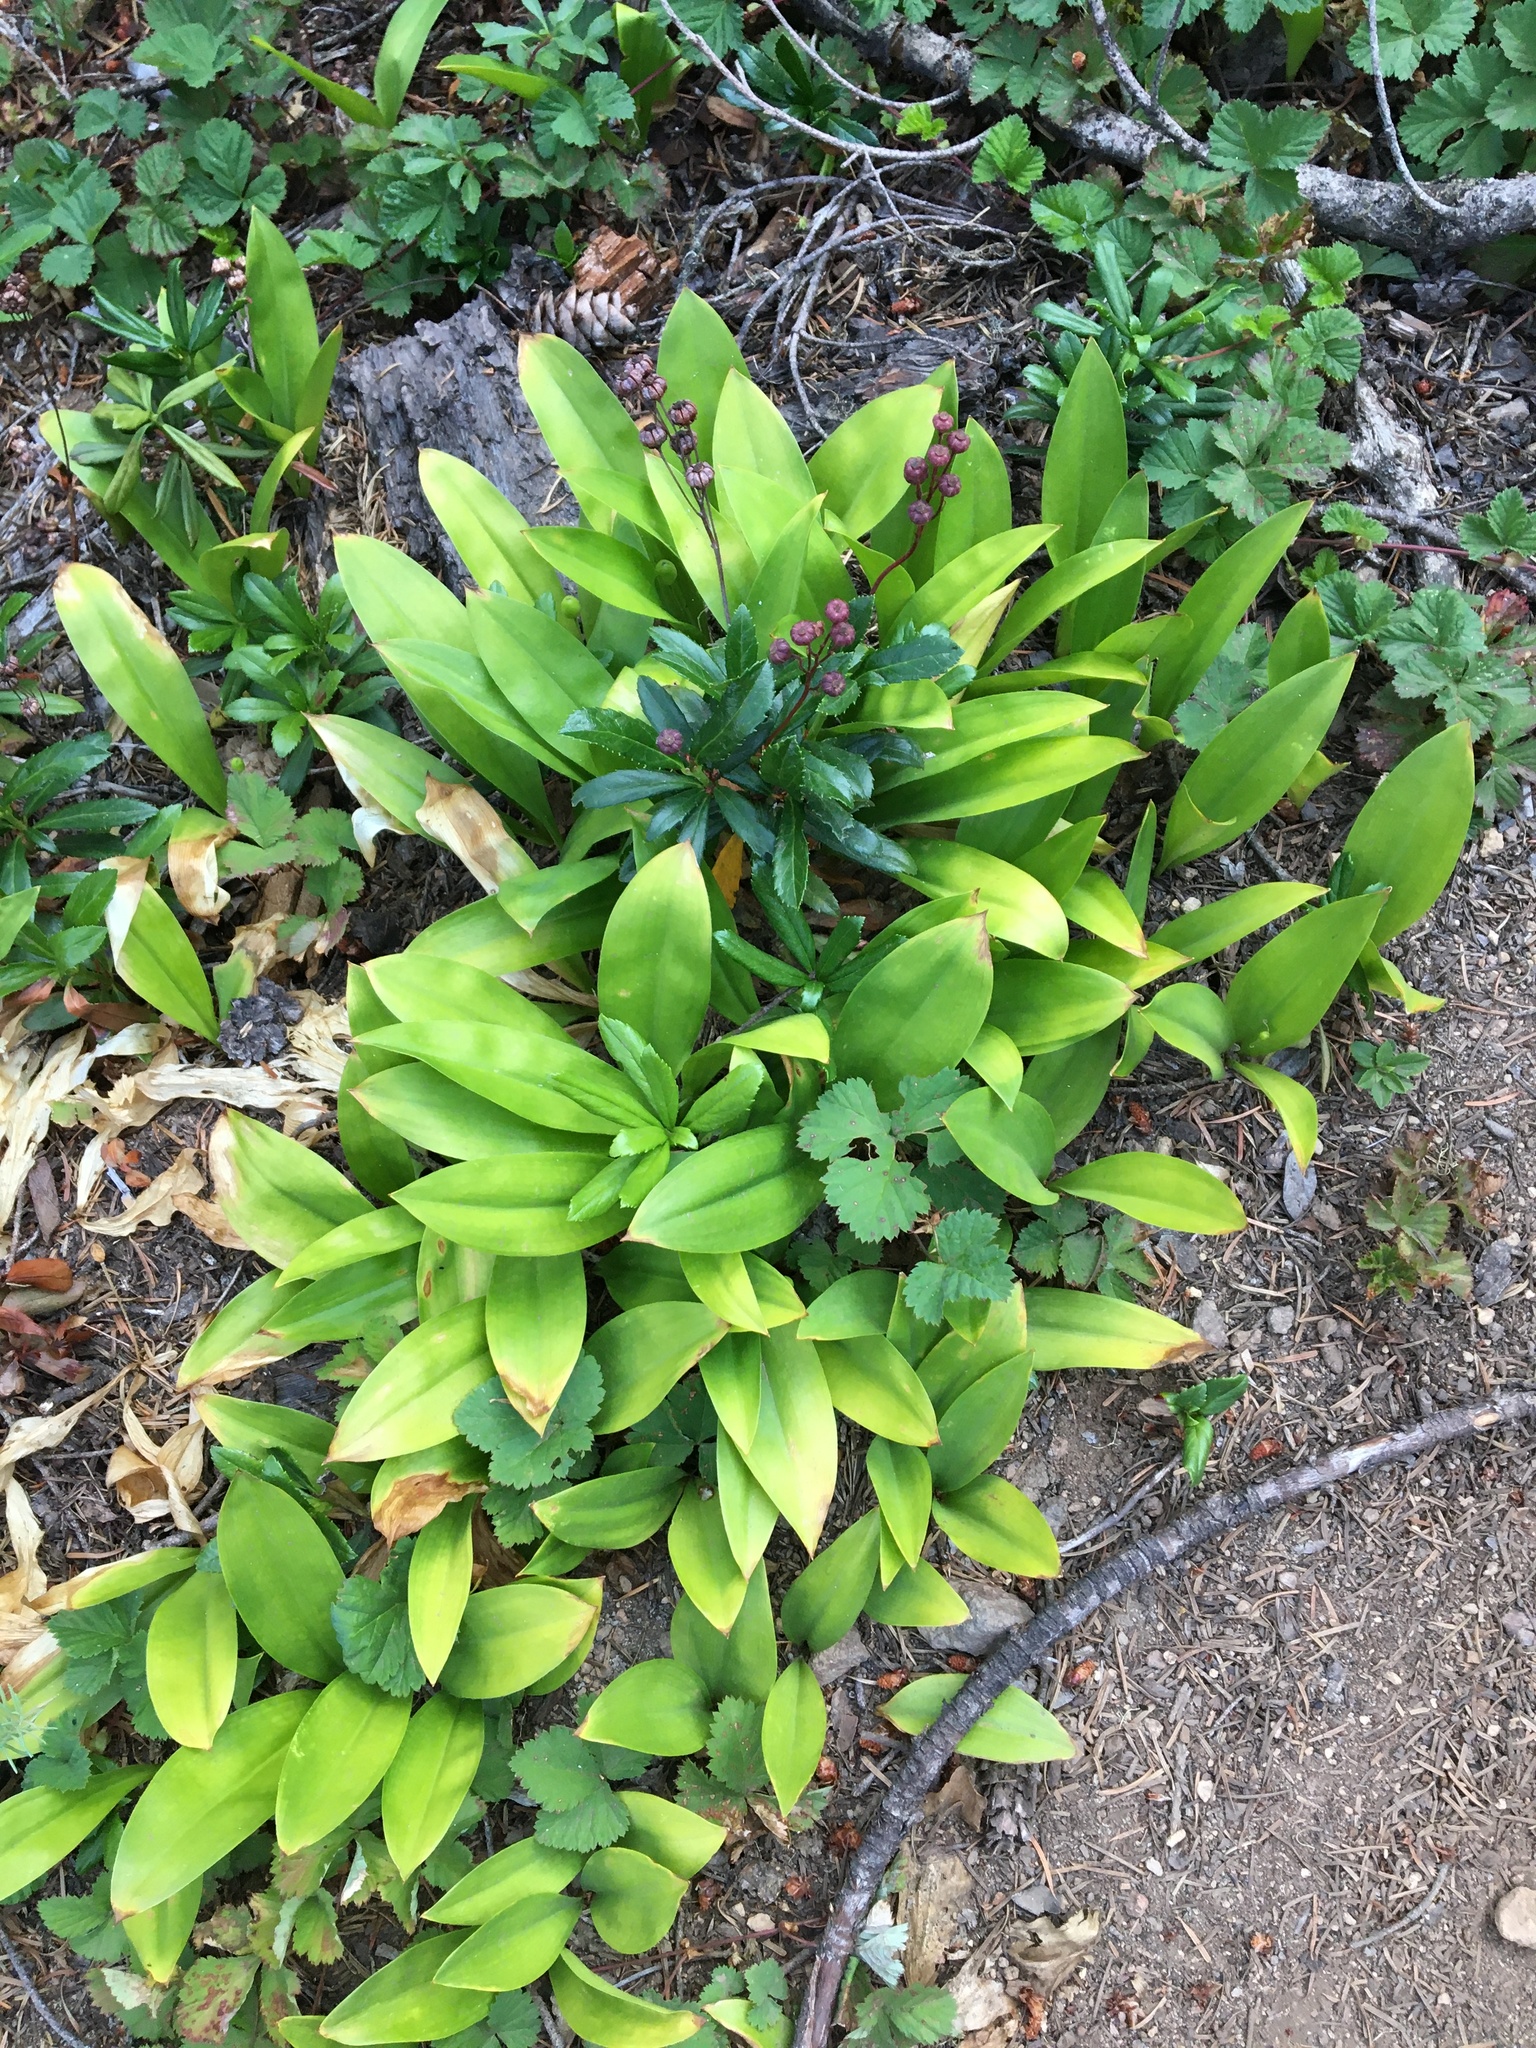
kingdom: Plantae
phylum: Tracheophyta
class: Liliopsida
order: Liliales
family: Liliaceae
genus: Clintonia
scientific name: Clintonia uniflora
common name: Queen's cup
